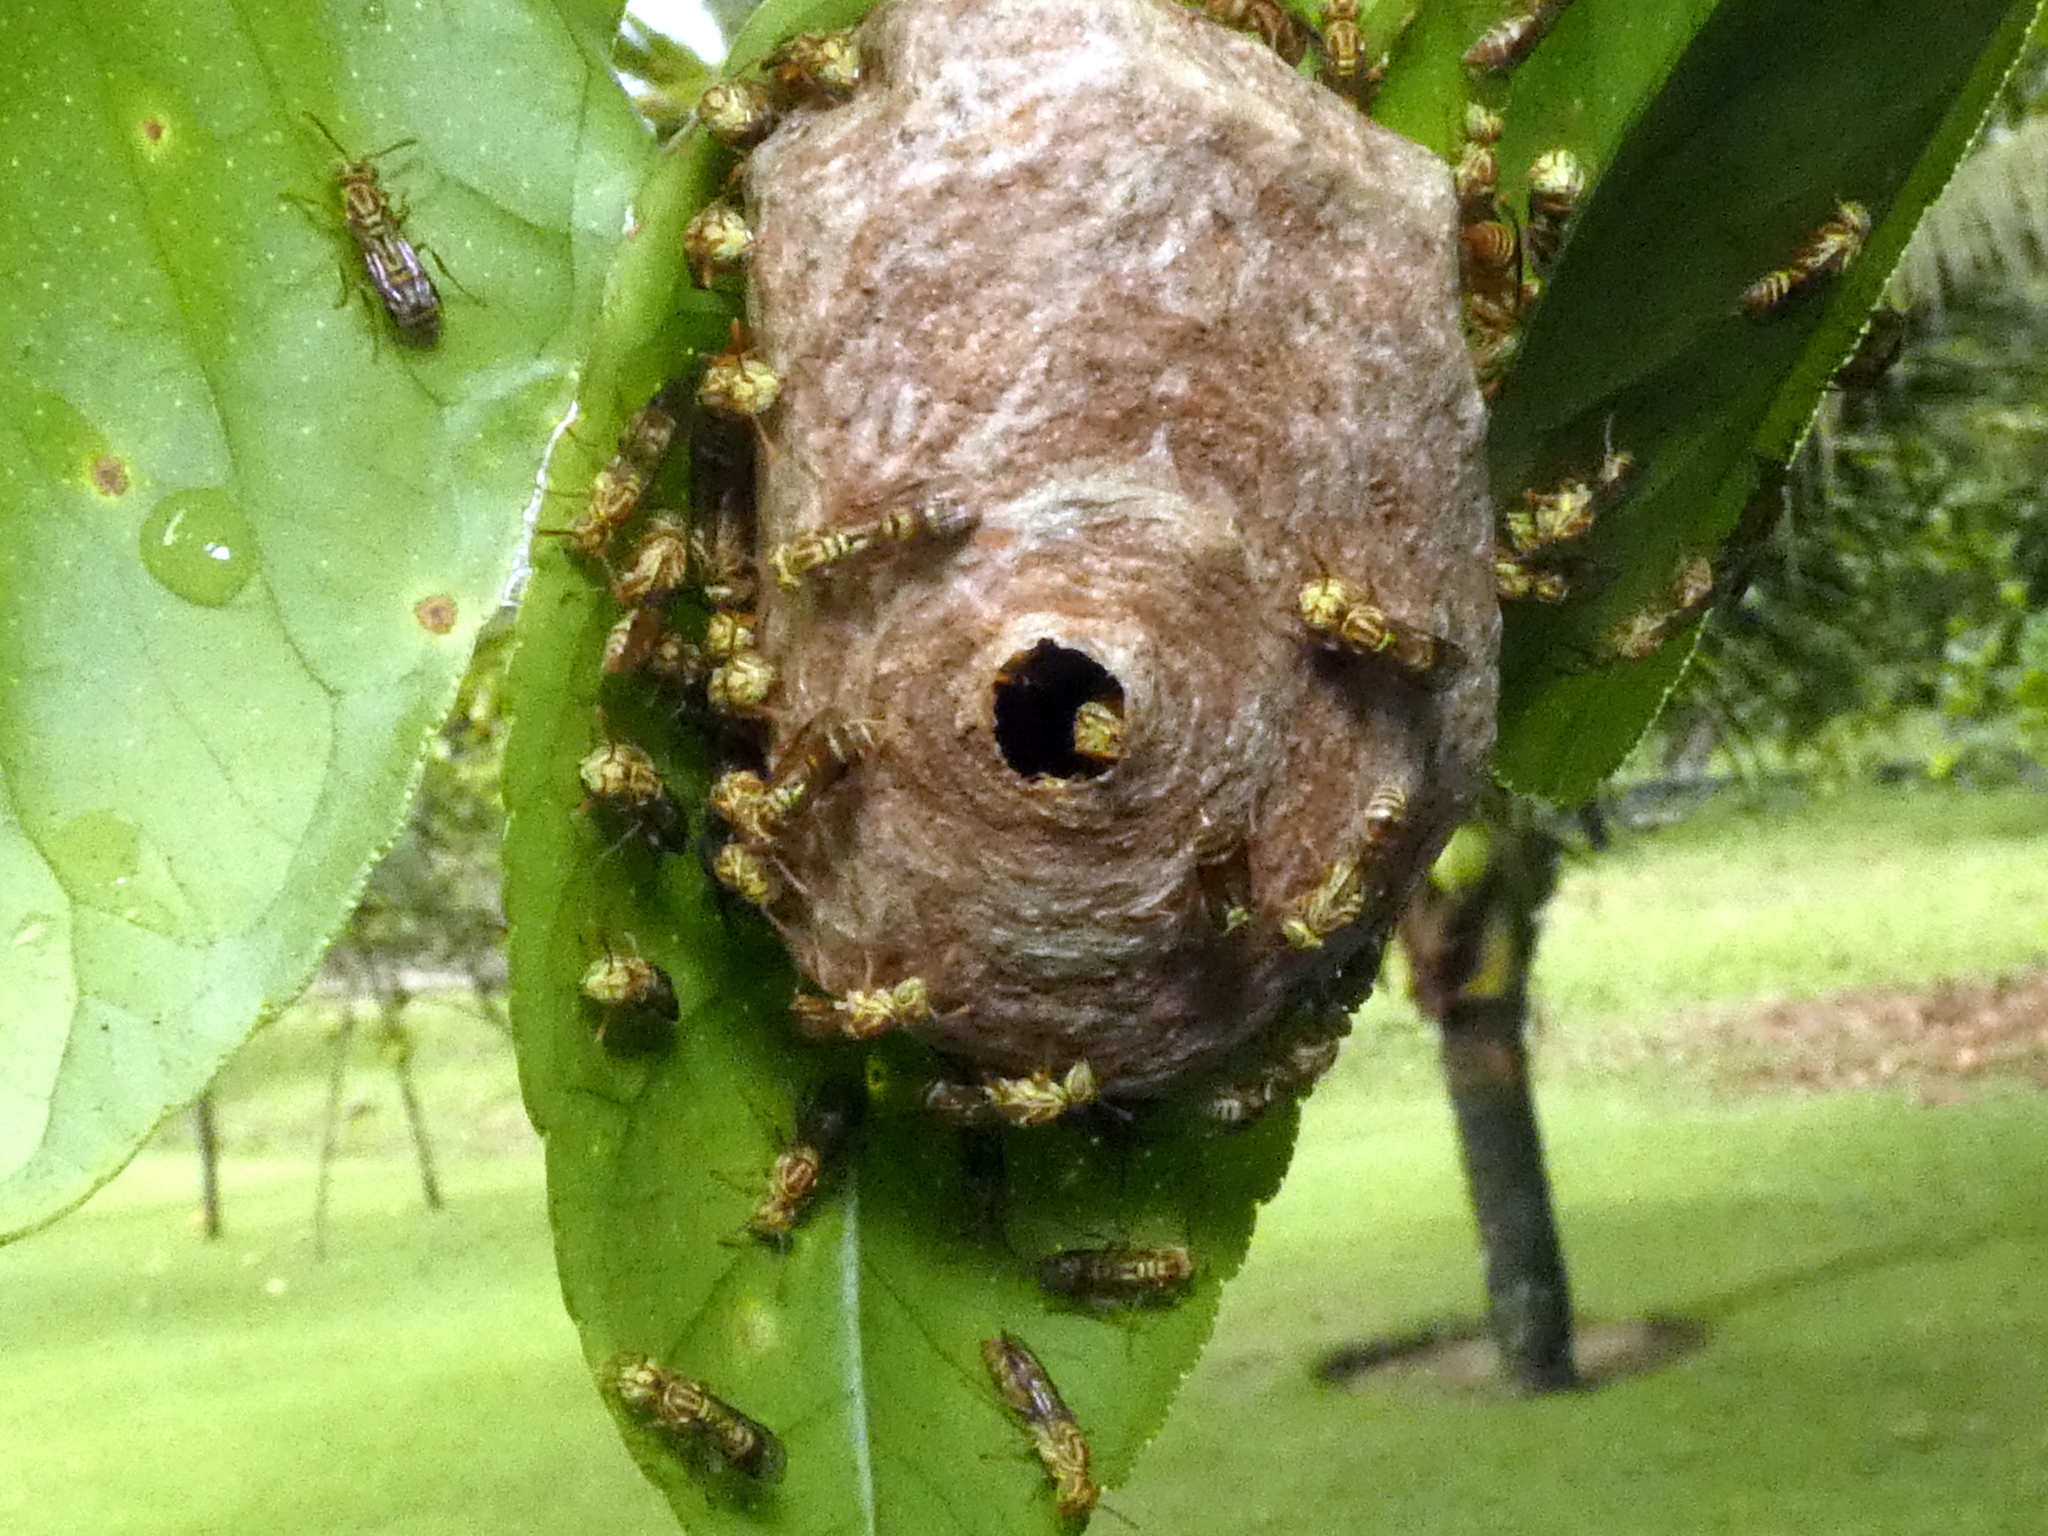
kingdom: Animalia
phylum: Arthropoda
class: Insecta
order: Hymenoptera
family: Vespidae
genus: Protopolybia
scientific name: Protopolybia potiguara
